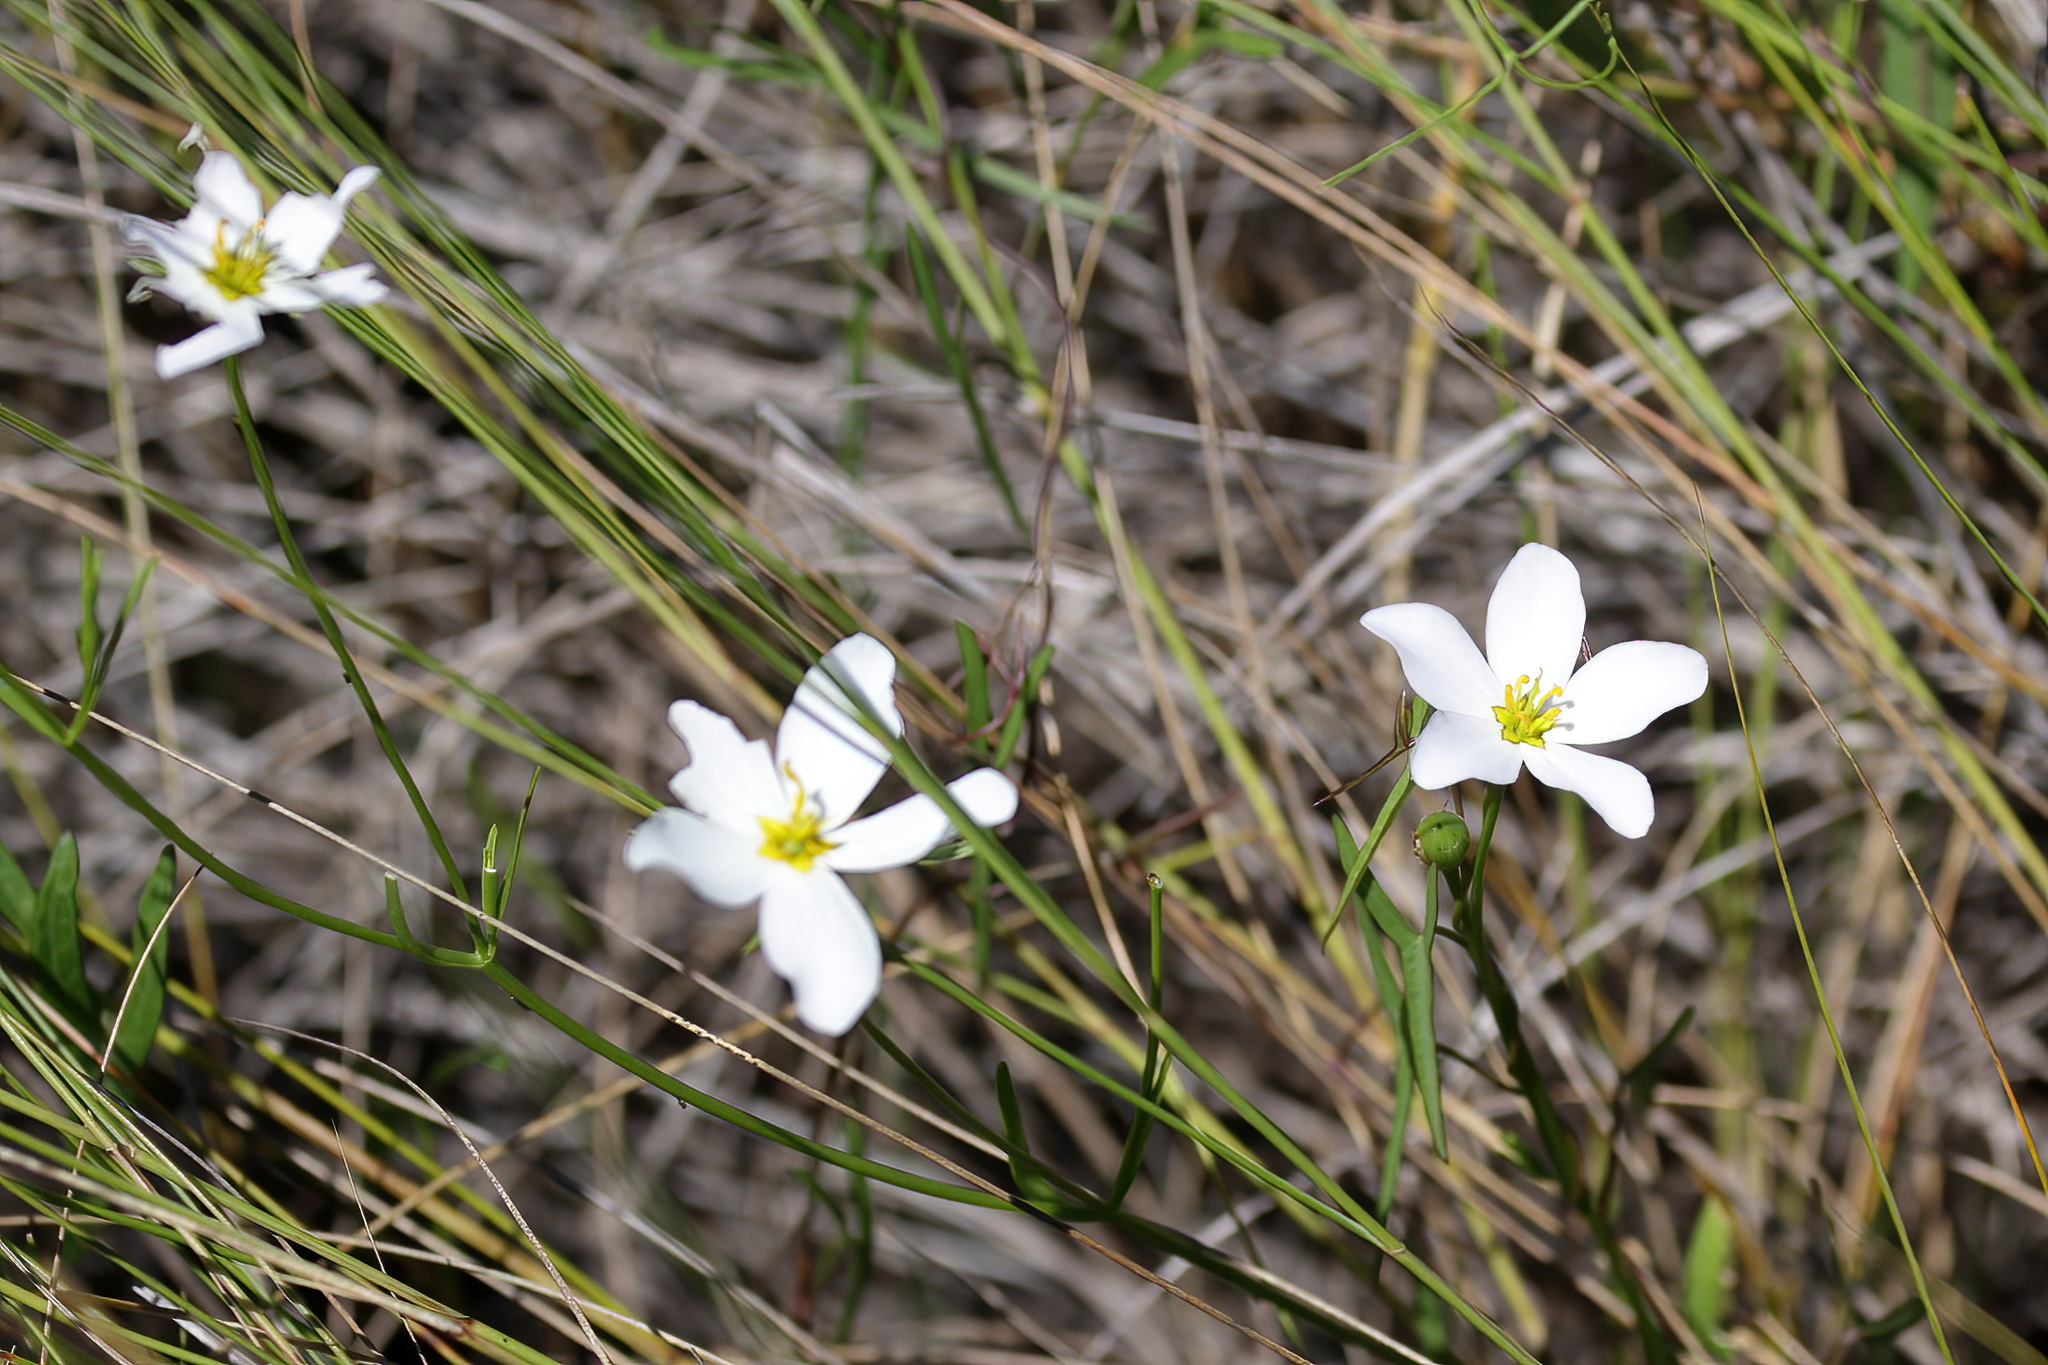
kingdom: Plantae
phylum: Tracheophyta
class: Magnoliopsida
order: Gentianales
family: Gentianaceae
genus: Sabatia
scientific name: Sabatia stellaris
